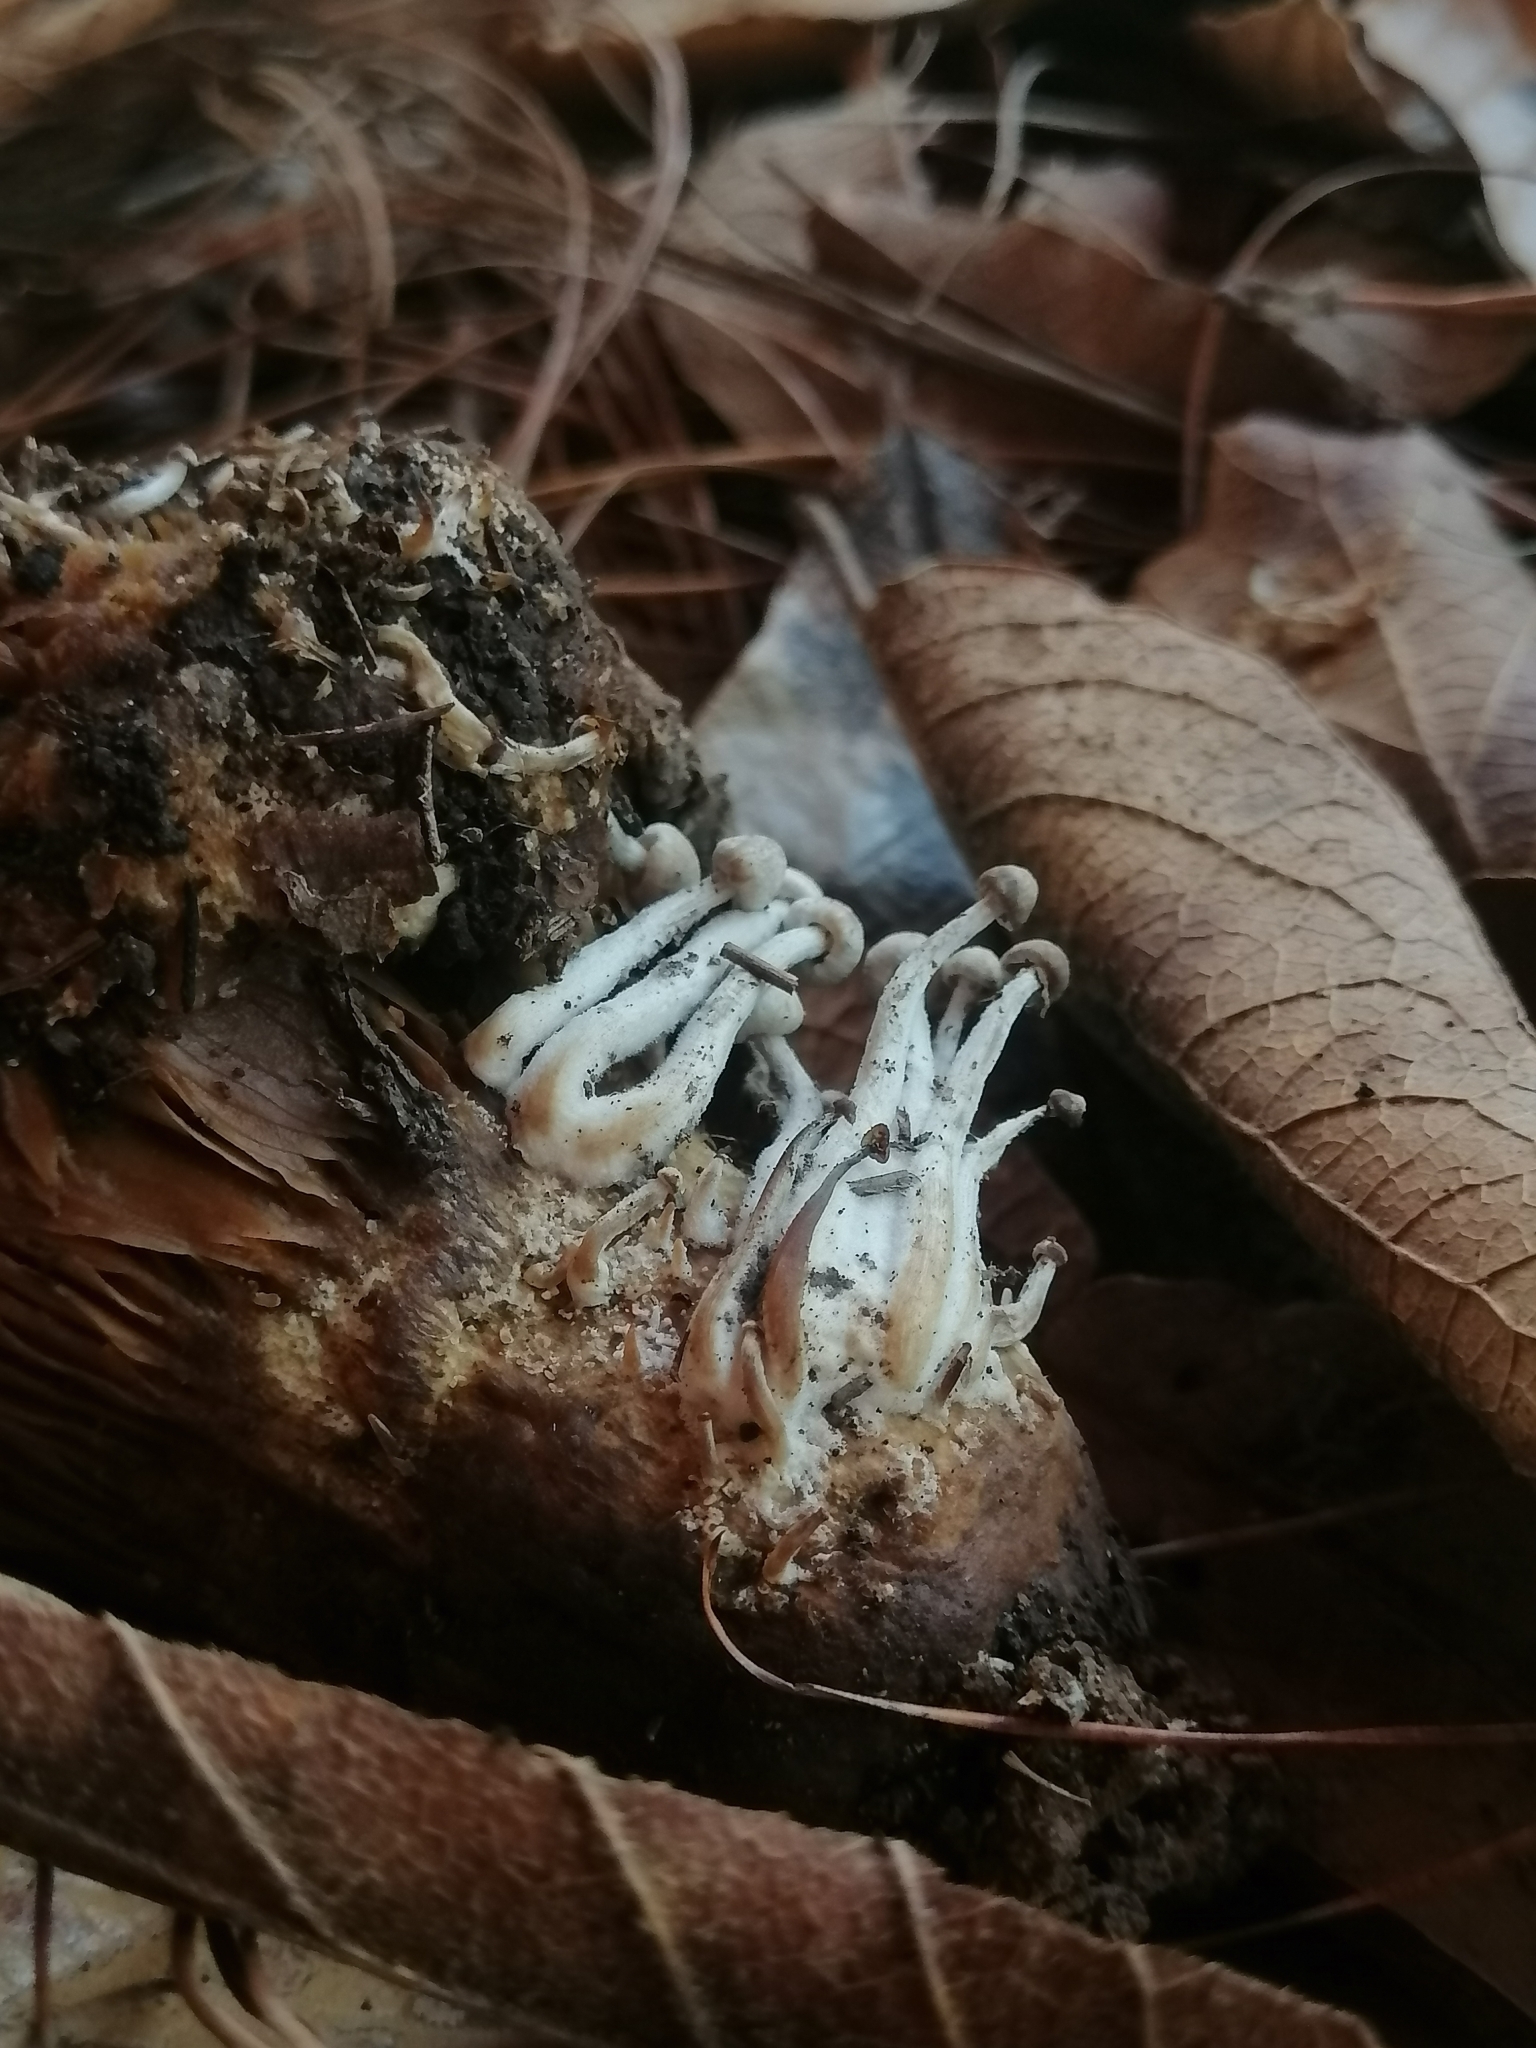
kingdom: Fungi
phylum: Basidiomycota
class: Agaricomycetes
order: Agaricales
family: Lyophyllaceae
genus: Asterophora
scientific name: Asterophora parasitica
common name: Silky piggyback
